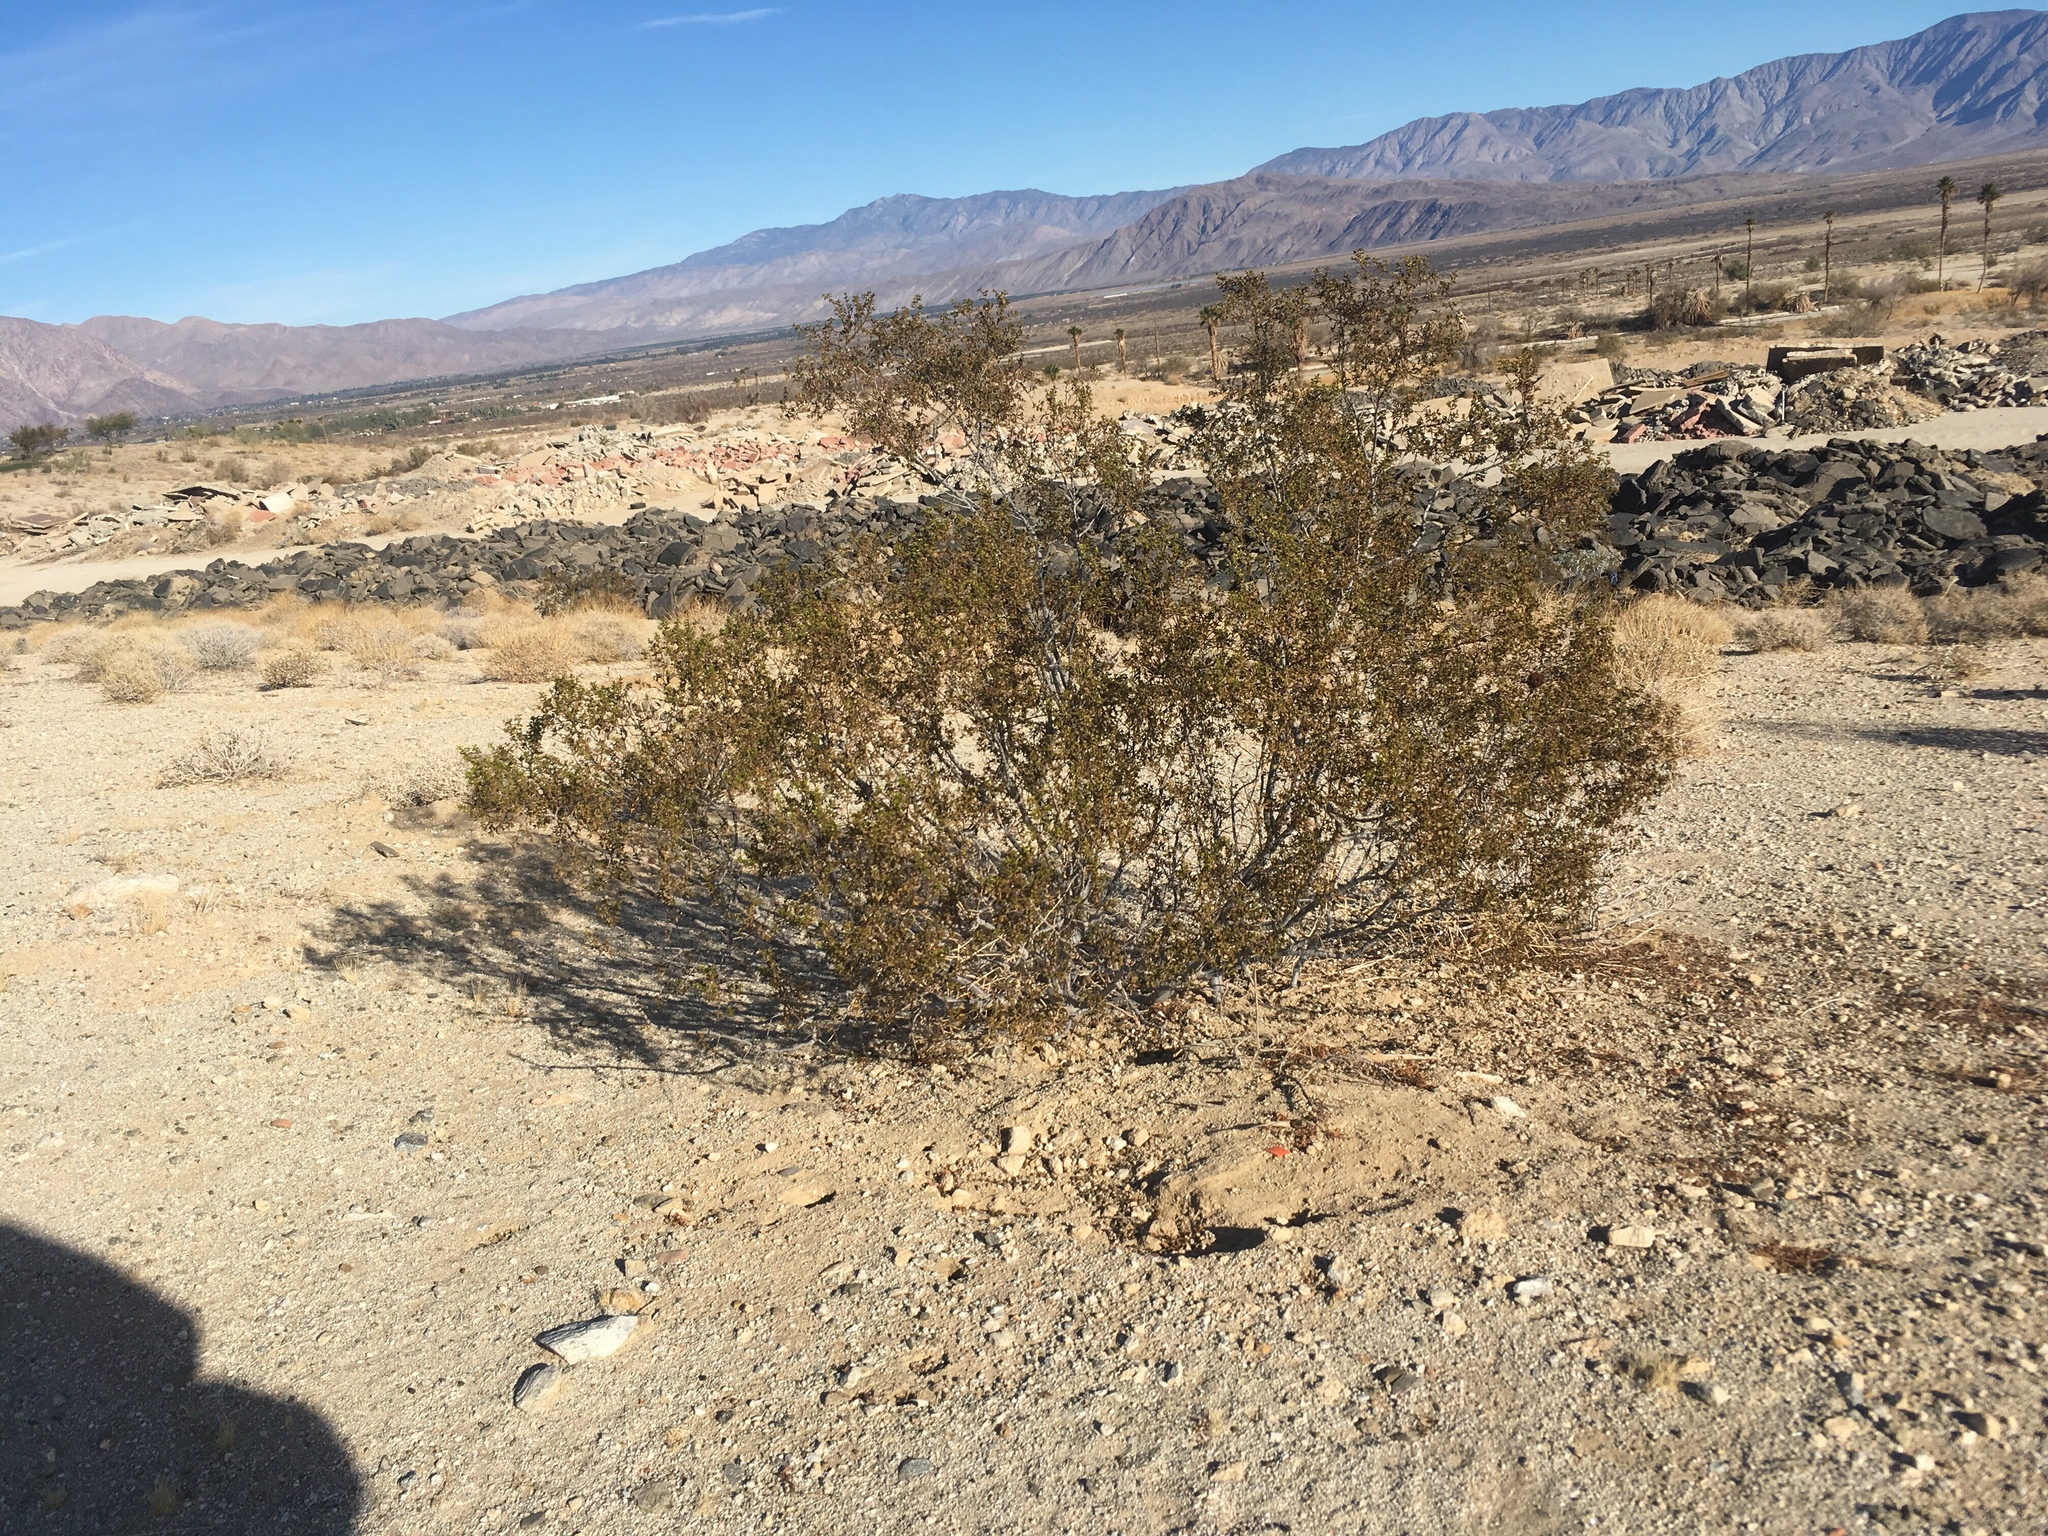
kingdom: Animalia
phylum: Arthropoda
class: Insecta
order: Diptera
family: Cecidomyiidae
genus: Asphondylia
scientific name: Asphondylia auripila
